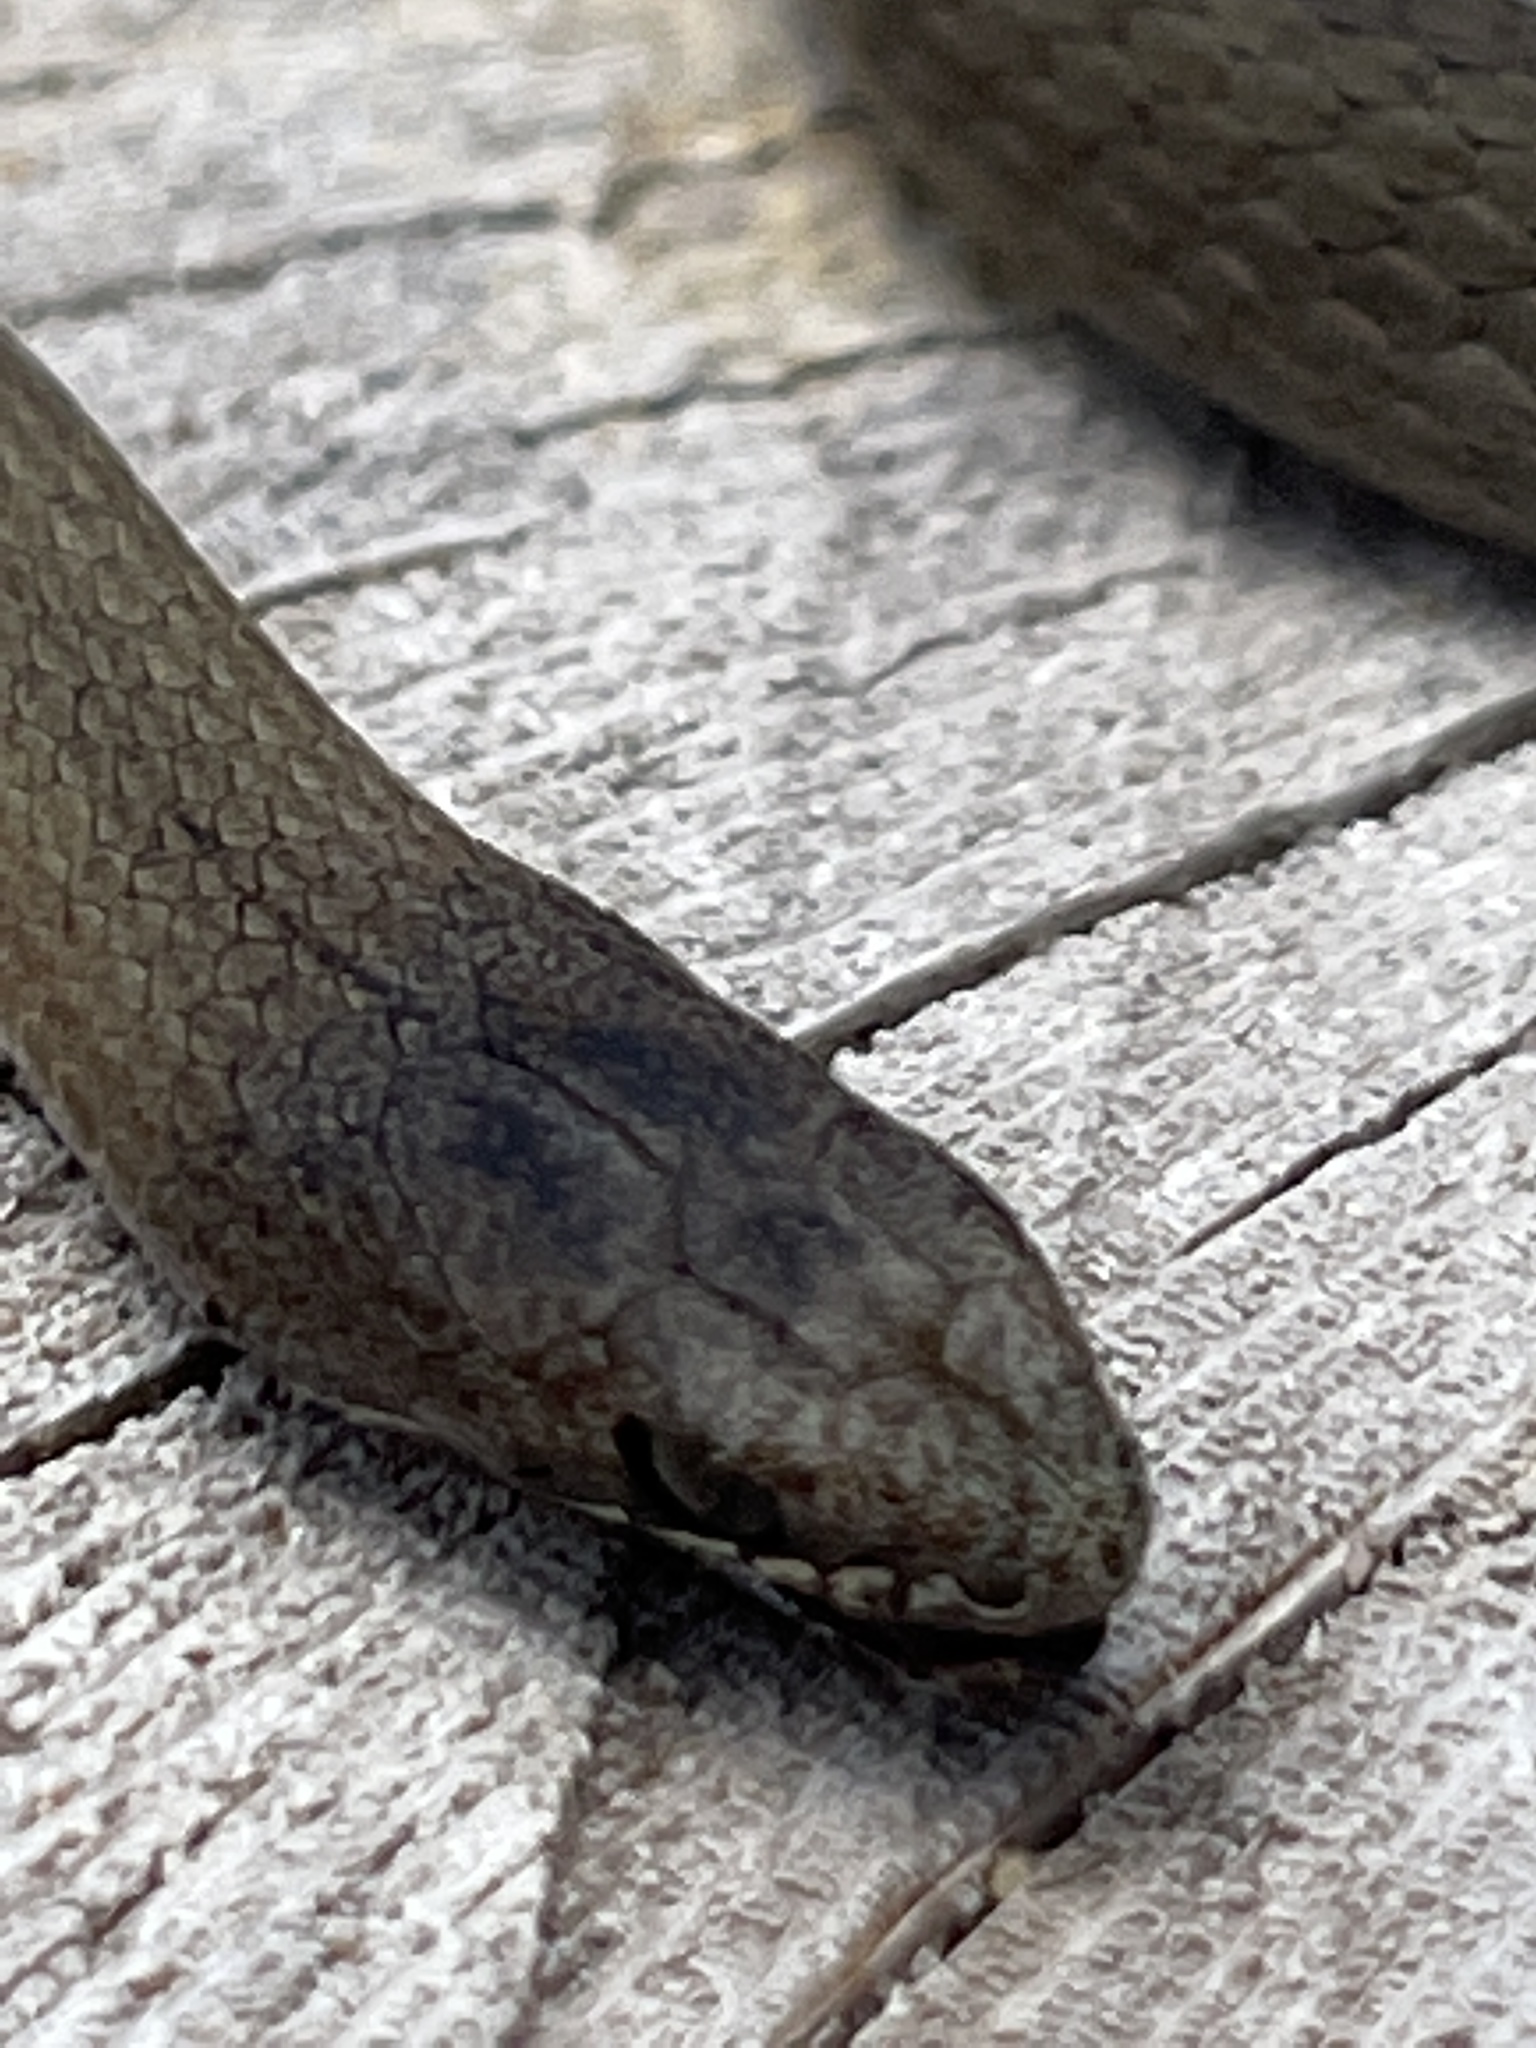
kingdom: Animalia
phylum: Chordata
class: Squamata
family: Elapidae
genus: Drysdalia
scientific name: Drysdalia coronoides
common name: White-lipped snake
